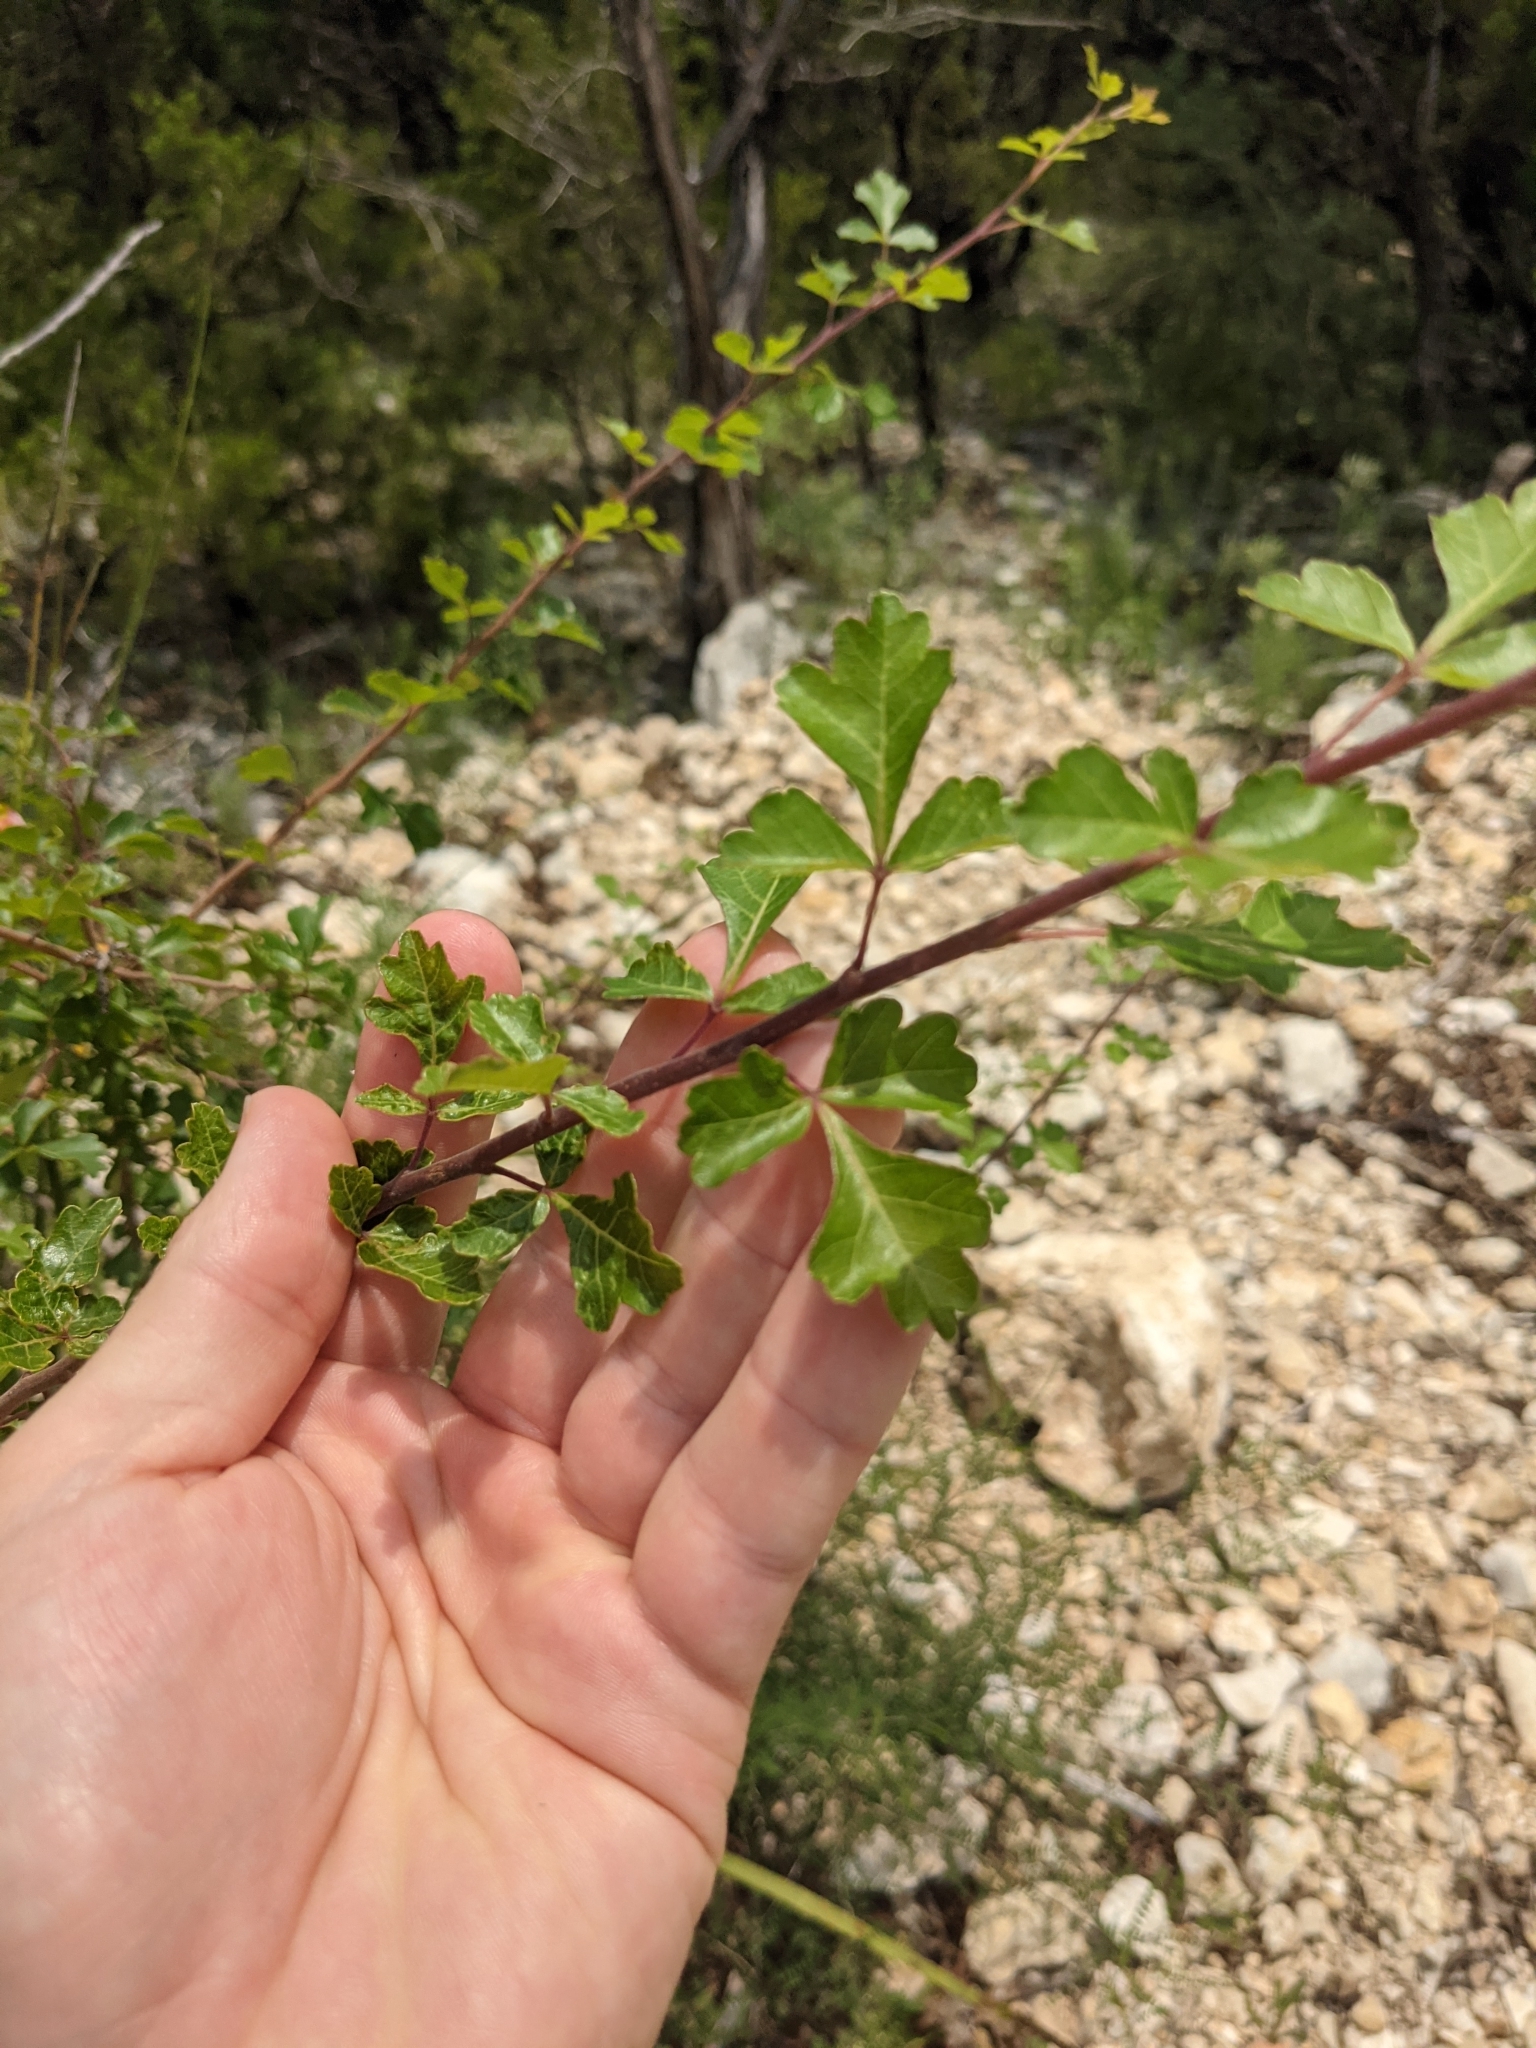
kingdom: Plantae
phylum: Tracheophyta
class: Magnoliopsida
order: Sapindales
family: Anacardiaceae
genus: Rhus
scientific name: Rhus aromatica
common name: Aromatic sumac
